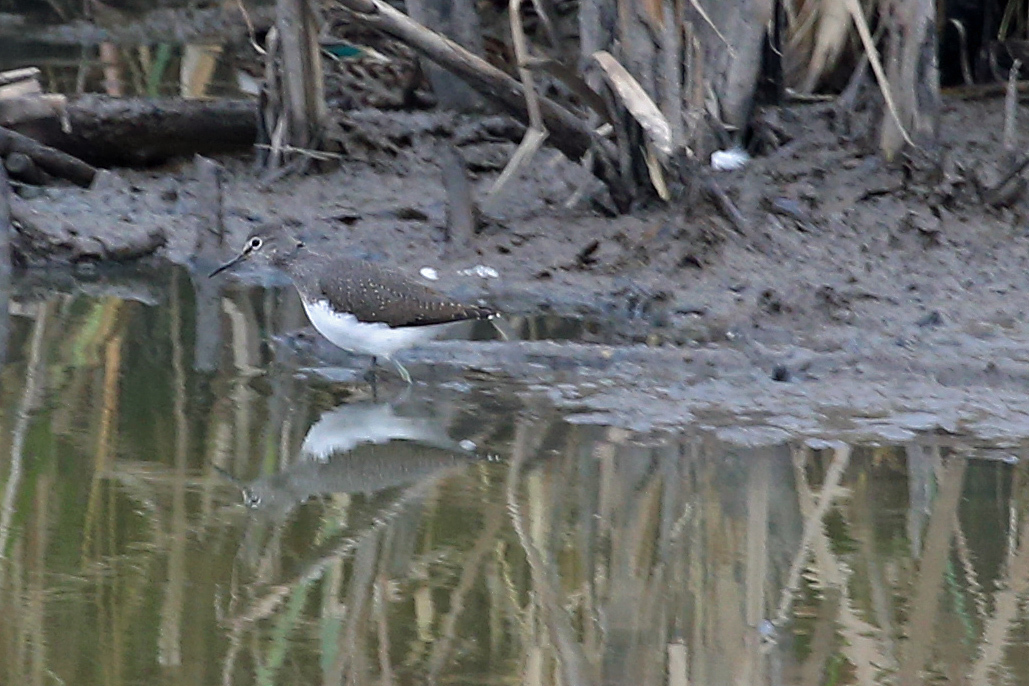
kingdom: Animalia
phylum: Chordata
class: Aves
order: Charadriiformes
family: Scolopacidae
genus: Tringa
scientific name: Tringa ochropus
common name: Green sandpiper
